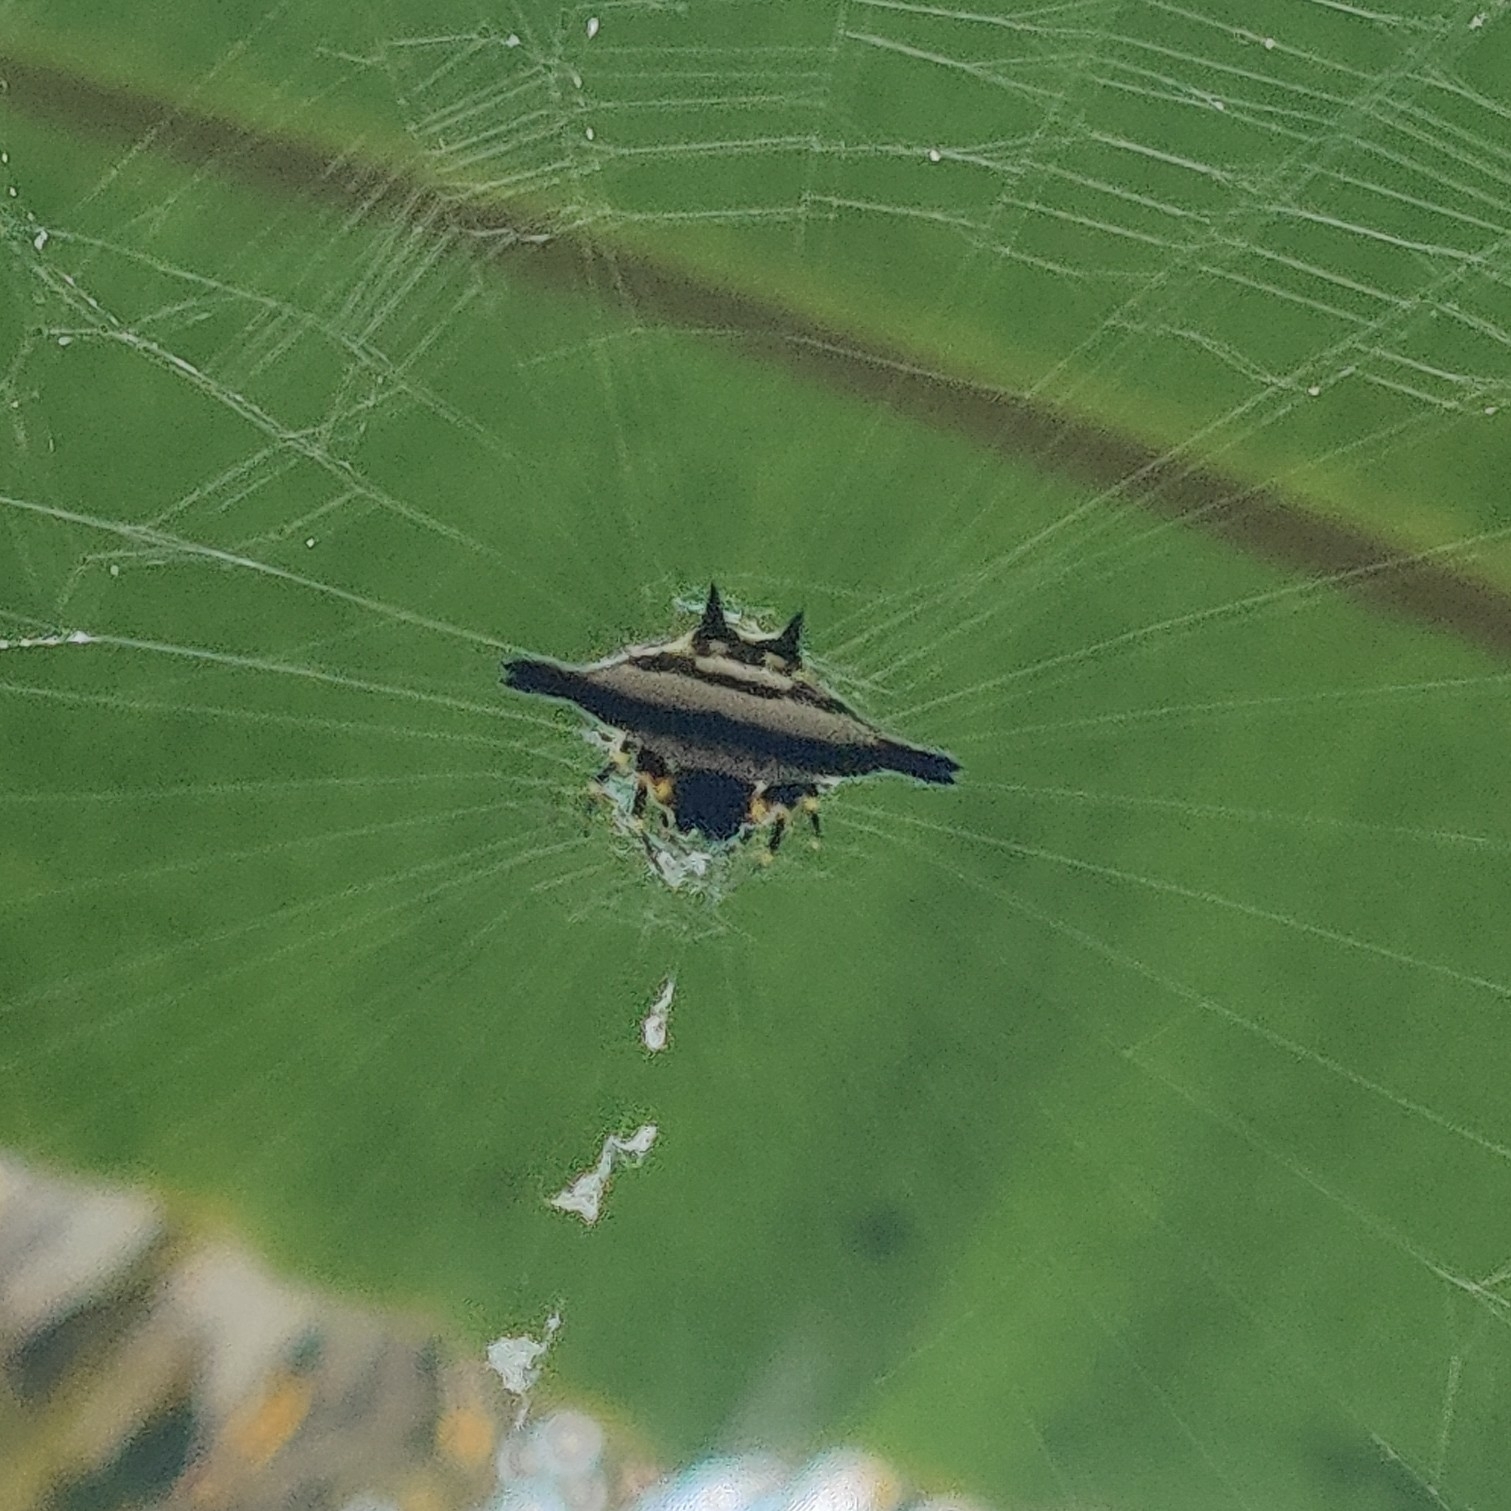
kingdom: Animalia
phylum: Arthropoda
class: Arachnida
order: Araneae
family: Araneidae
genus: Gasteracantha
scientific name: Gasteracantha geminata
